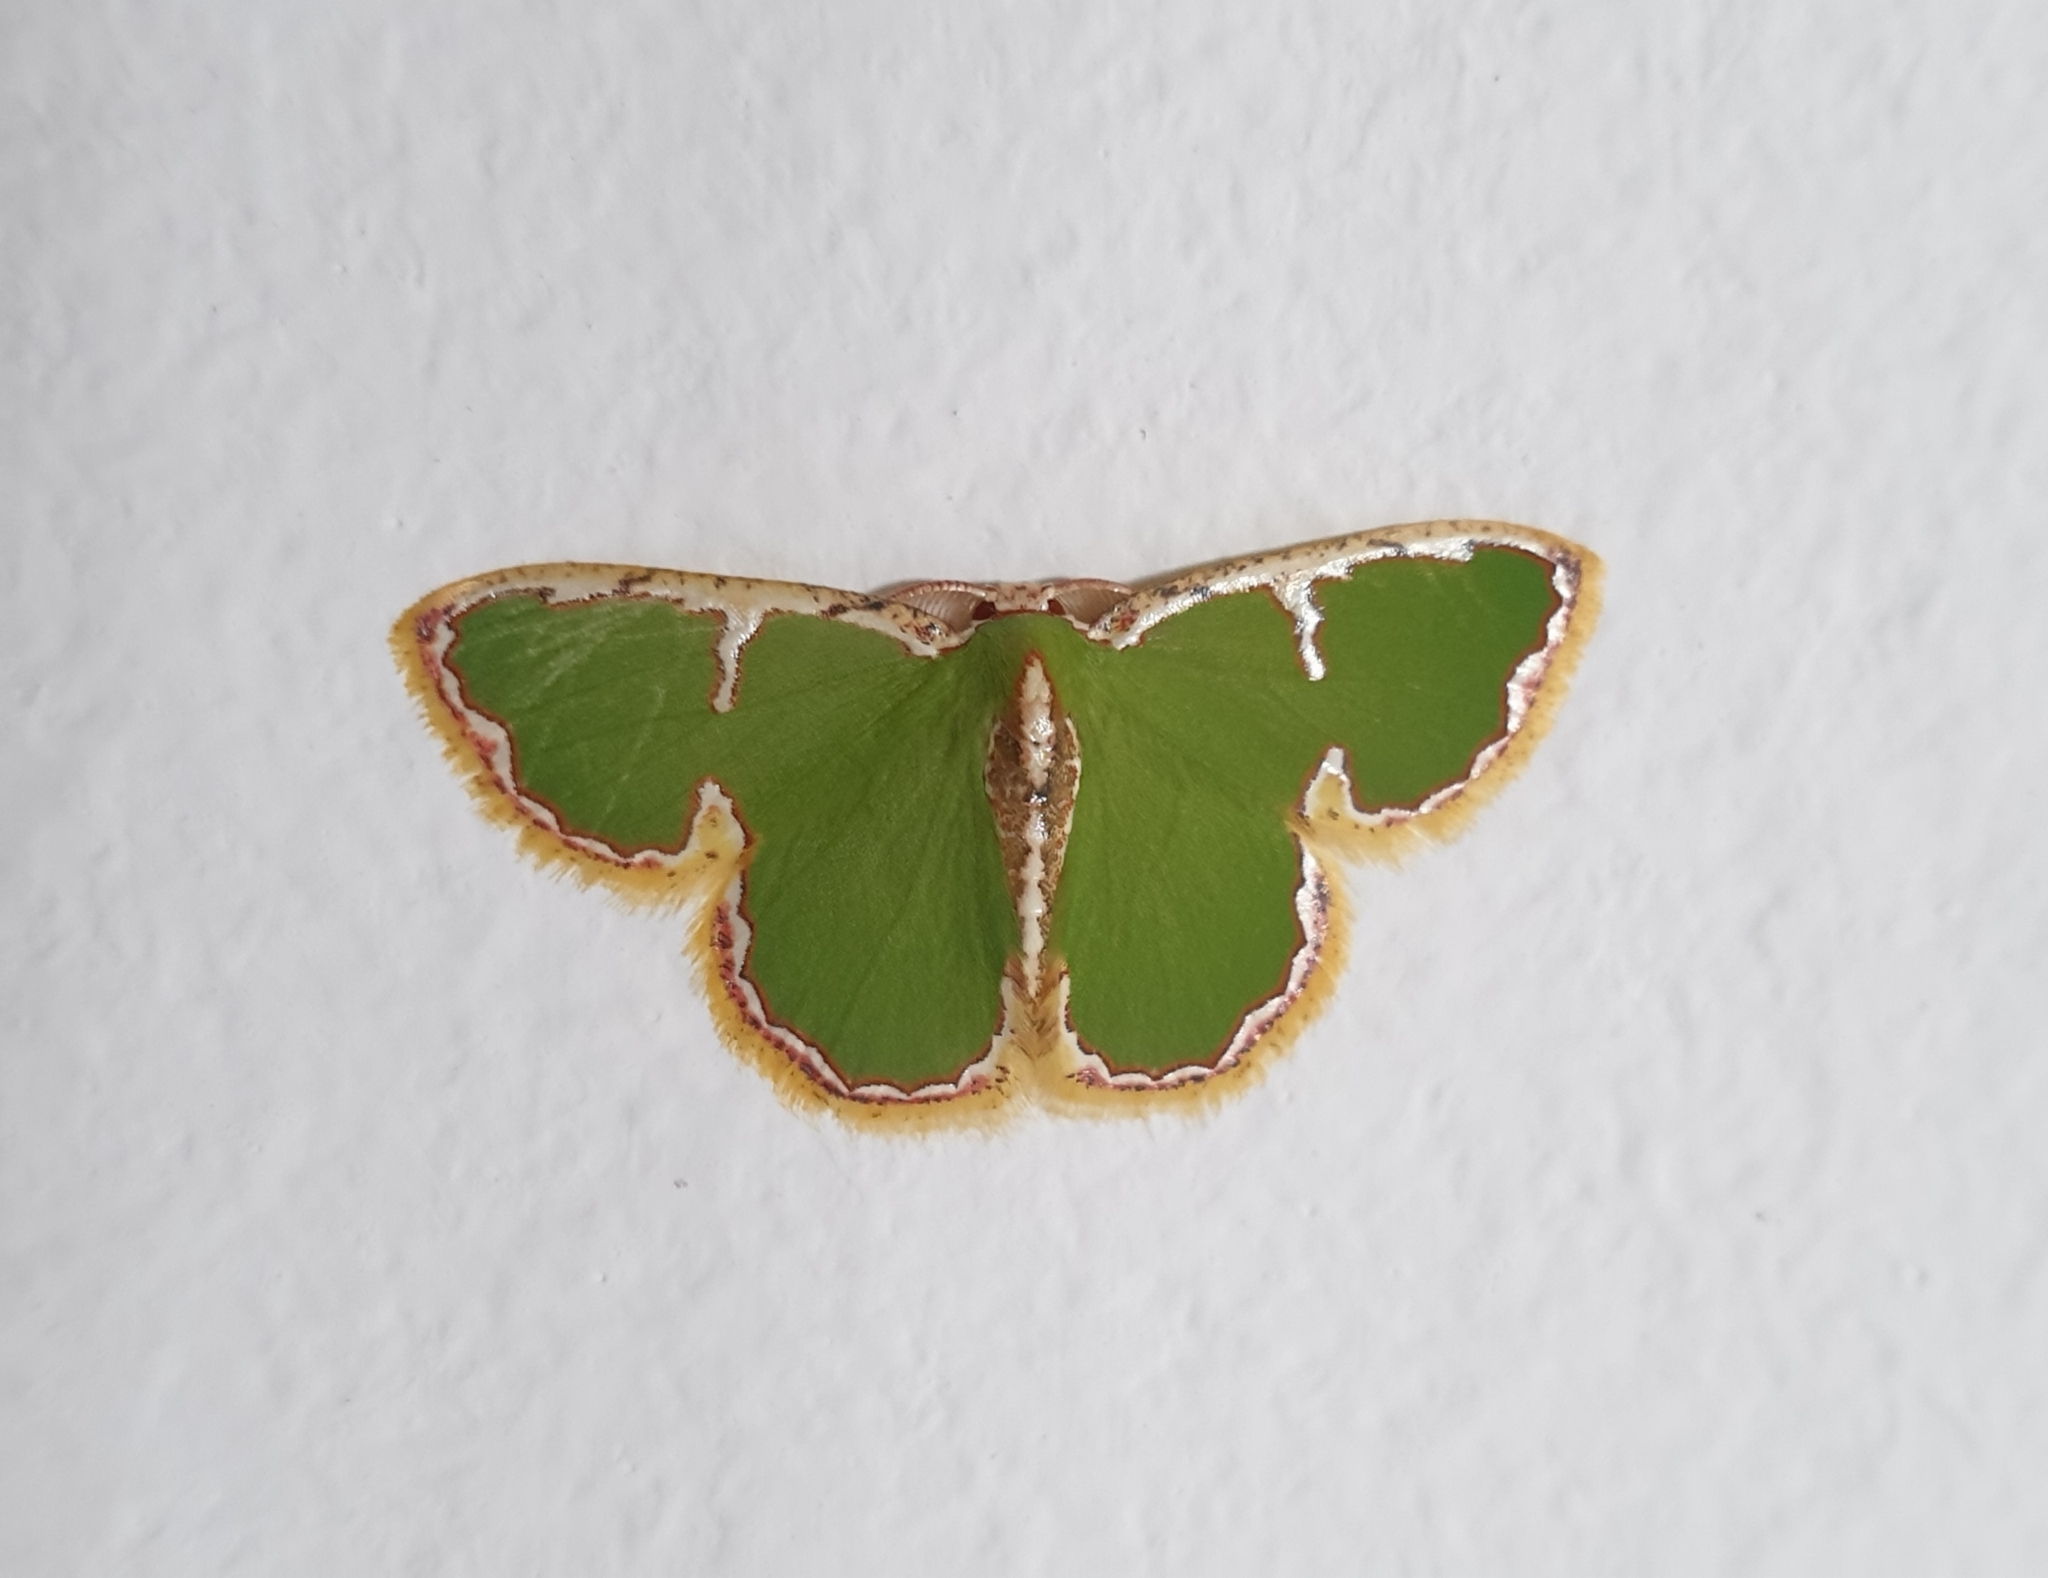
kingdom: Animalia
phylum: Arthropoda
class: Insecta
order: Lepidoptera
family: Geometridae
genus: Comostola
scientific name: Comostola chlorargyra
